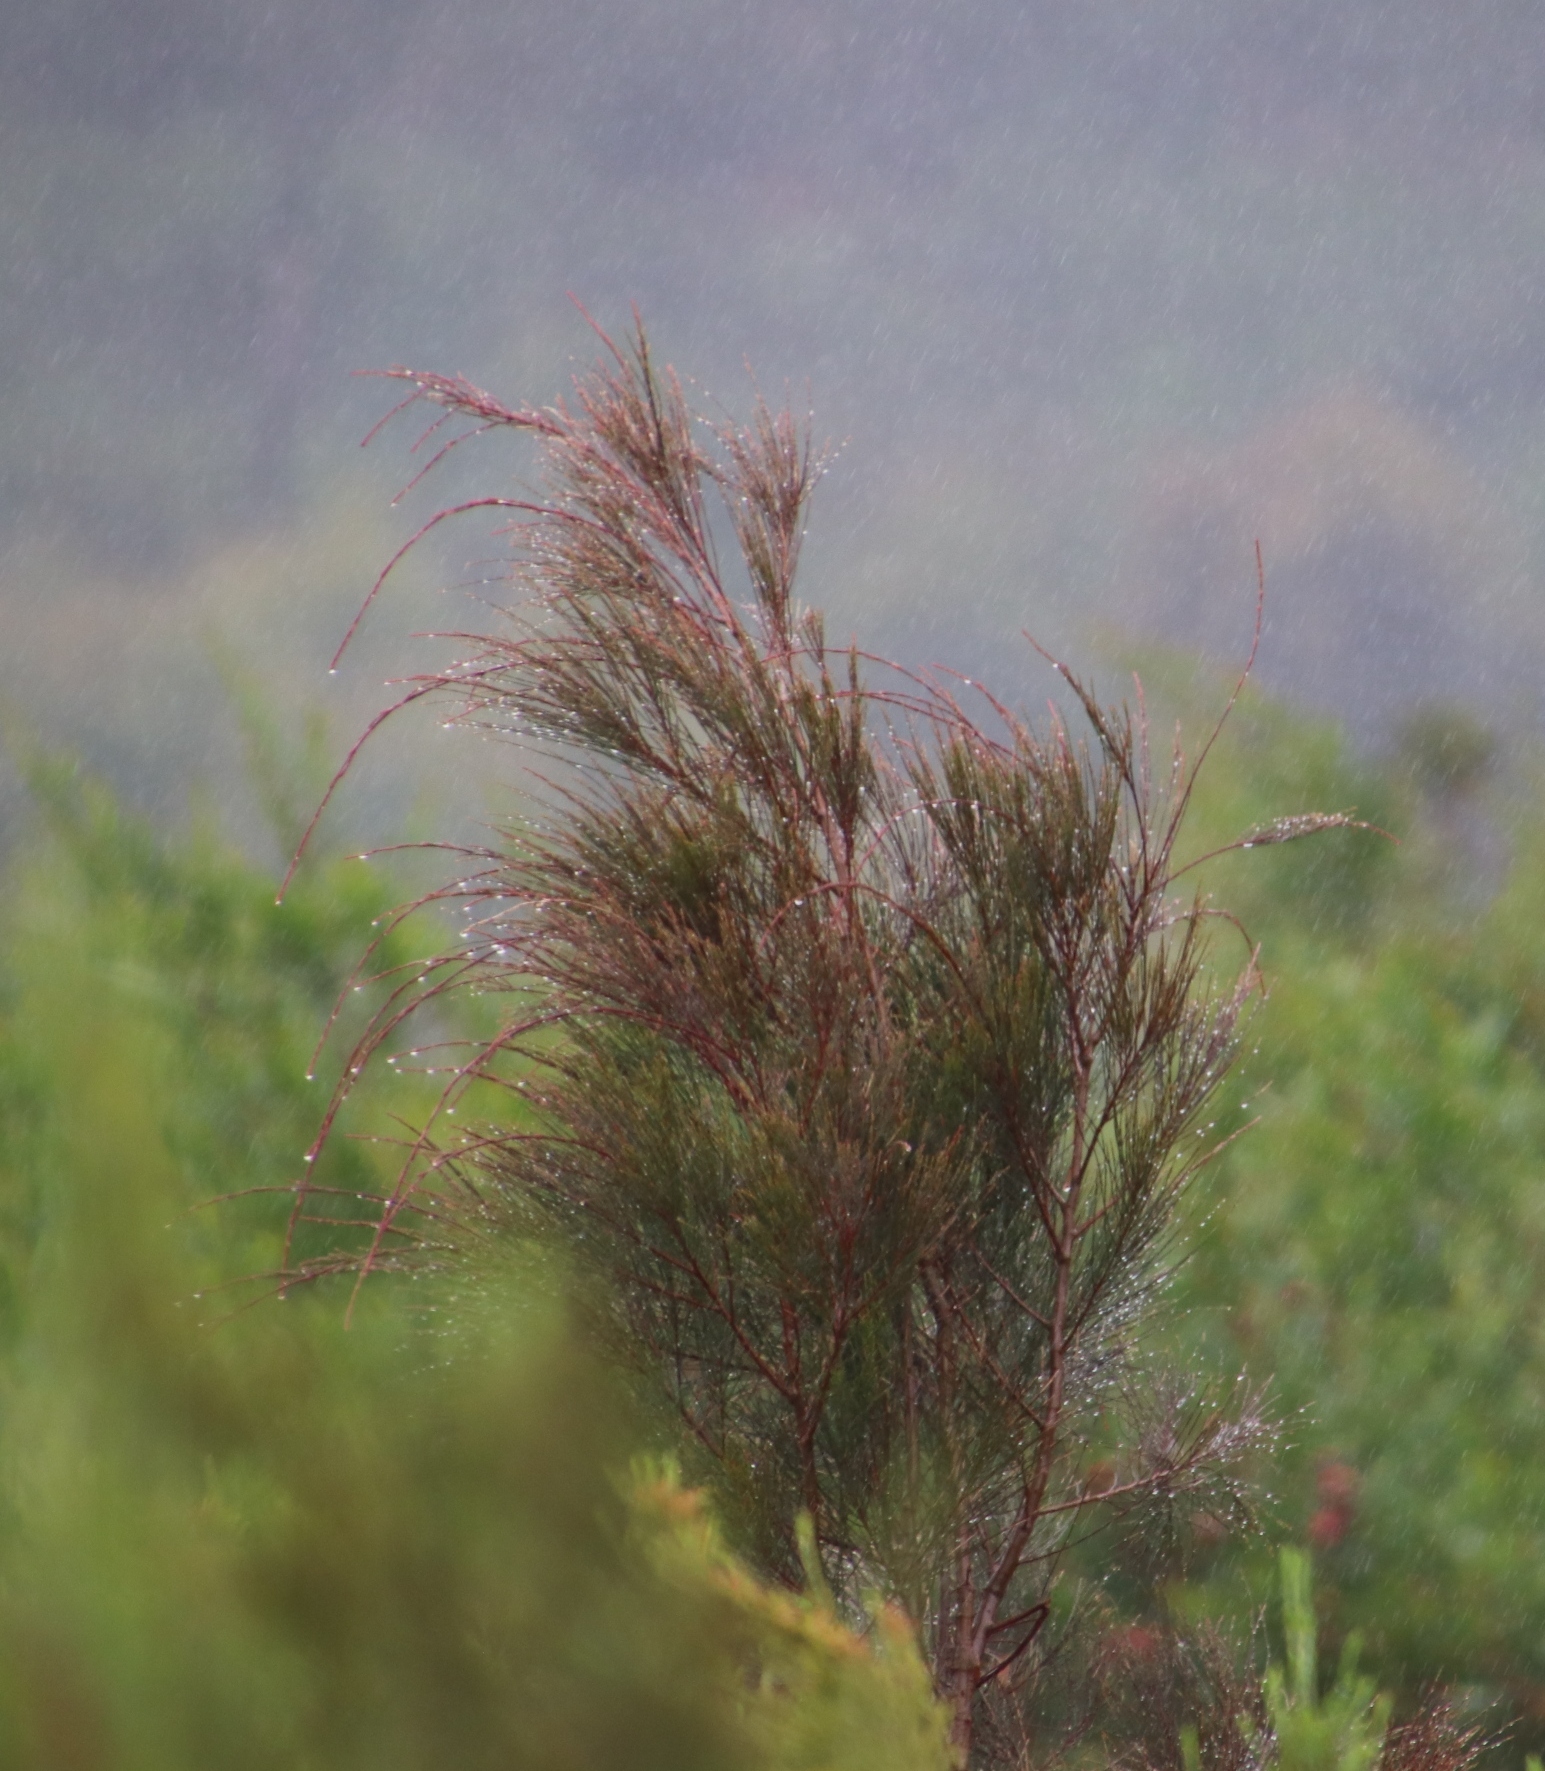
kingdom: Plantae
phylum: Tracheophyta
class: Magnoliopsida
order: Fagales
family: Casuarinaceae
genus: Allocasuarina
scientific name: Allocasuarina littoralis
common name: Black she-oak
